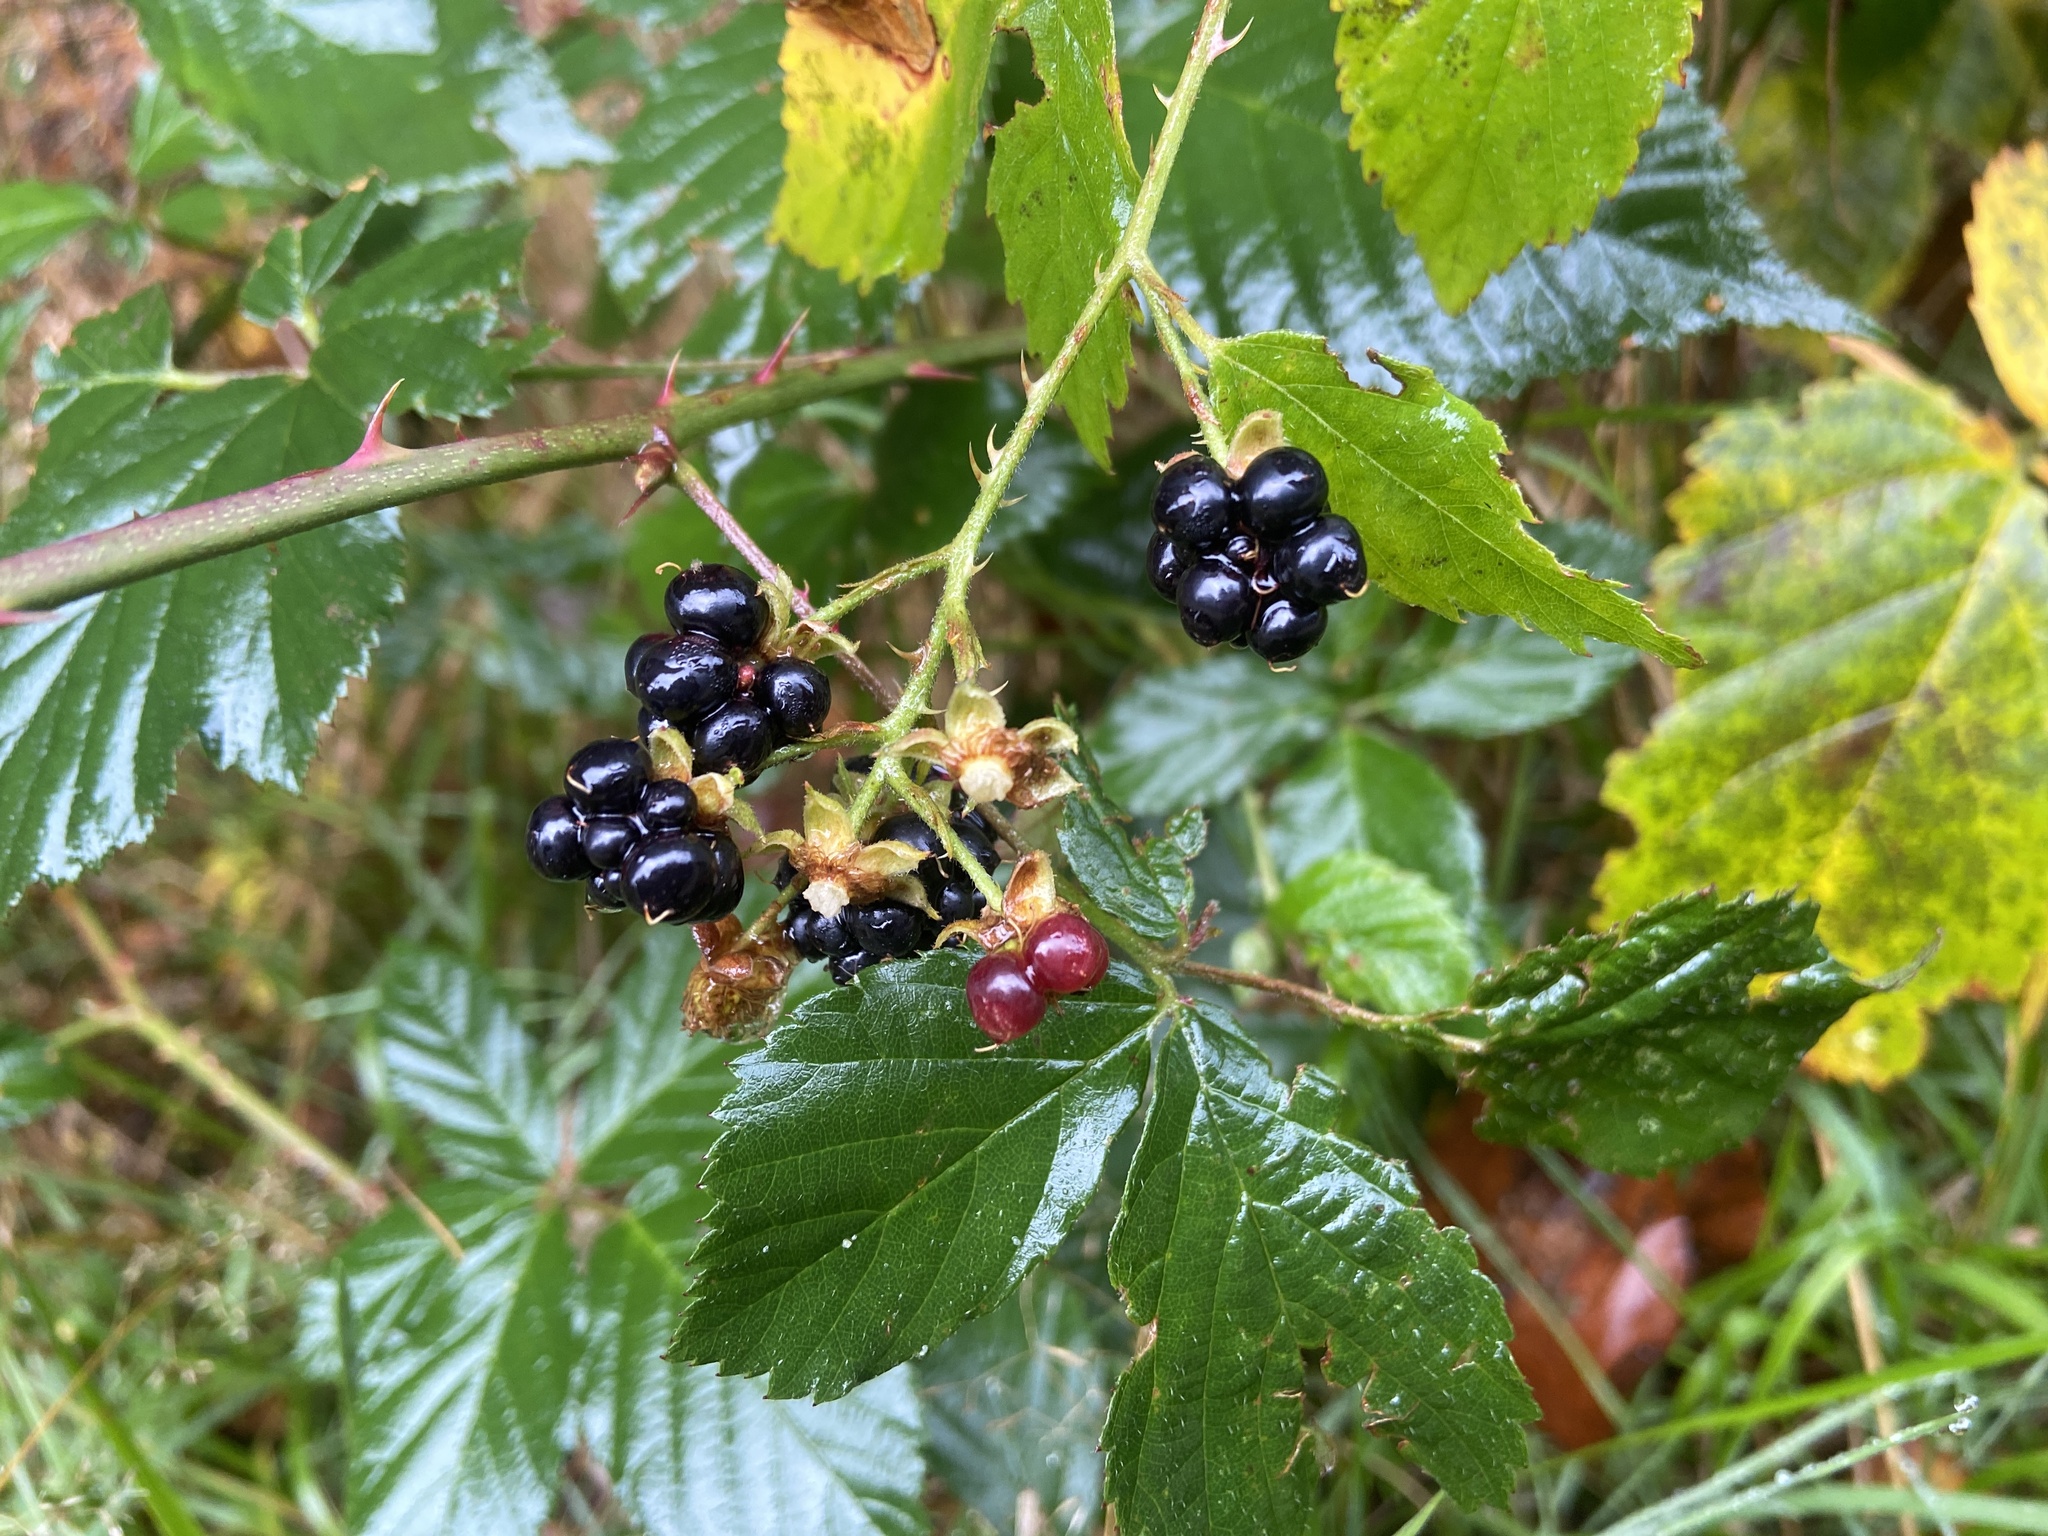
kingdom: Plantae
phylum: Tracheophyta
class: Magnoliopsida
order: Rosales
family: Rosaceae
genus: Rubus
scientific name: Rubus fruticosus
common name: Blackberry, bramble
